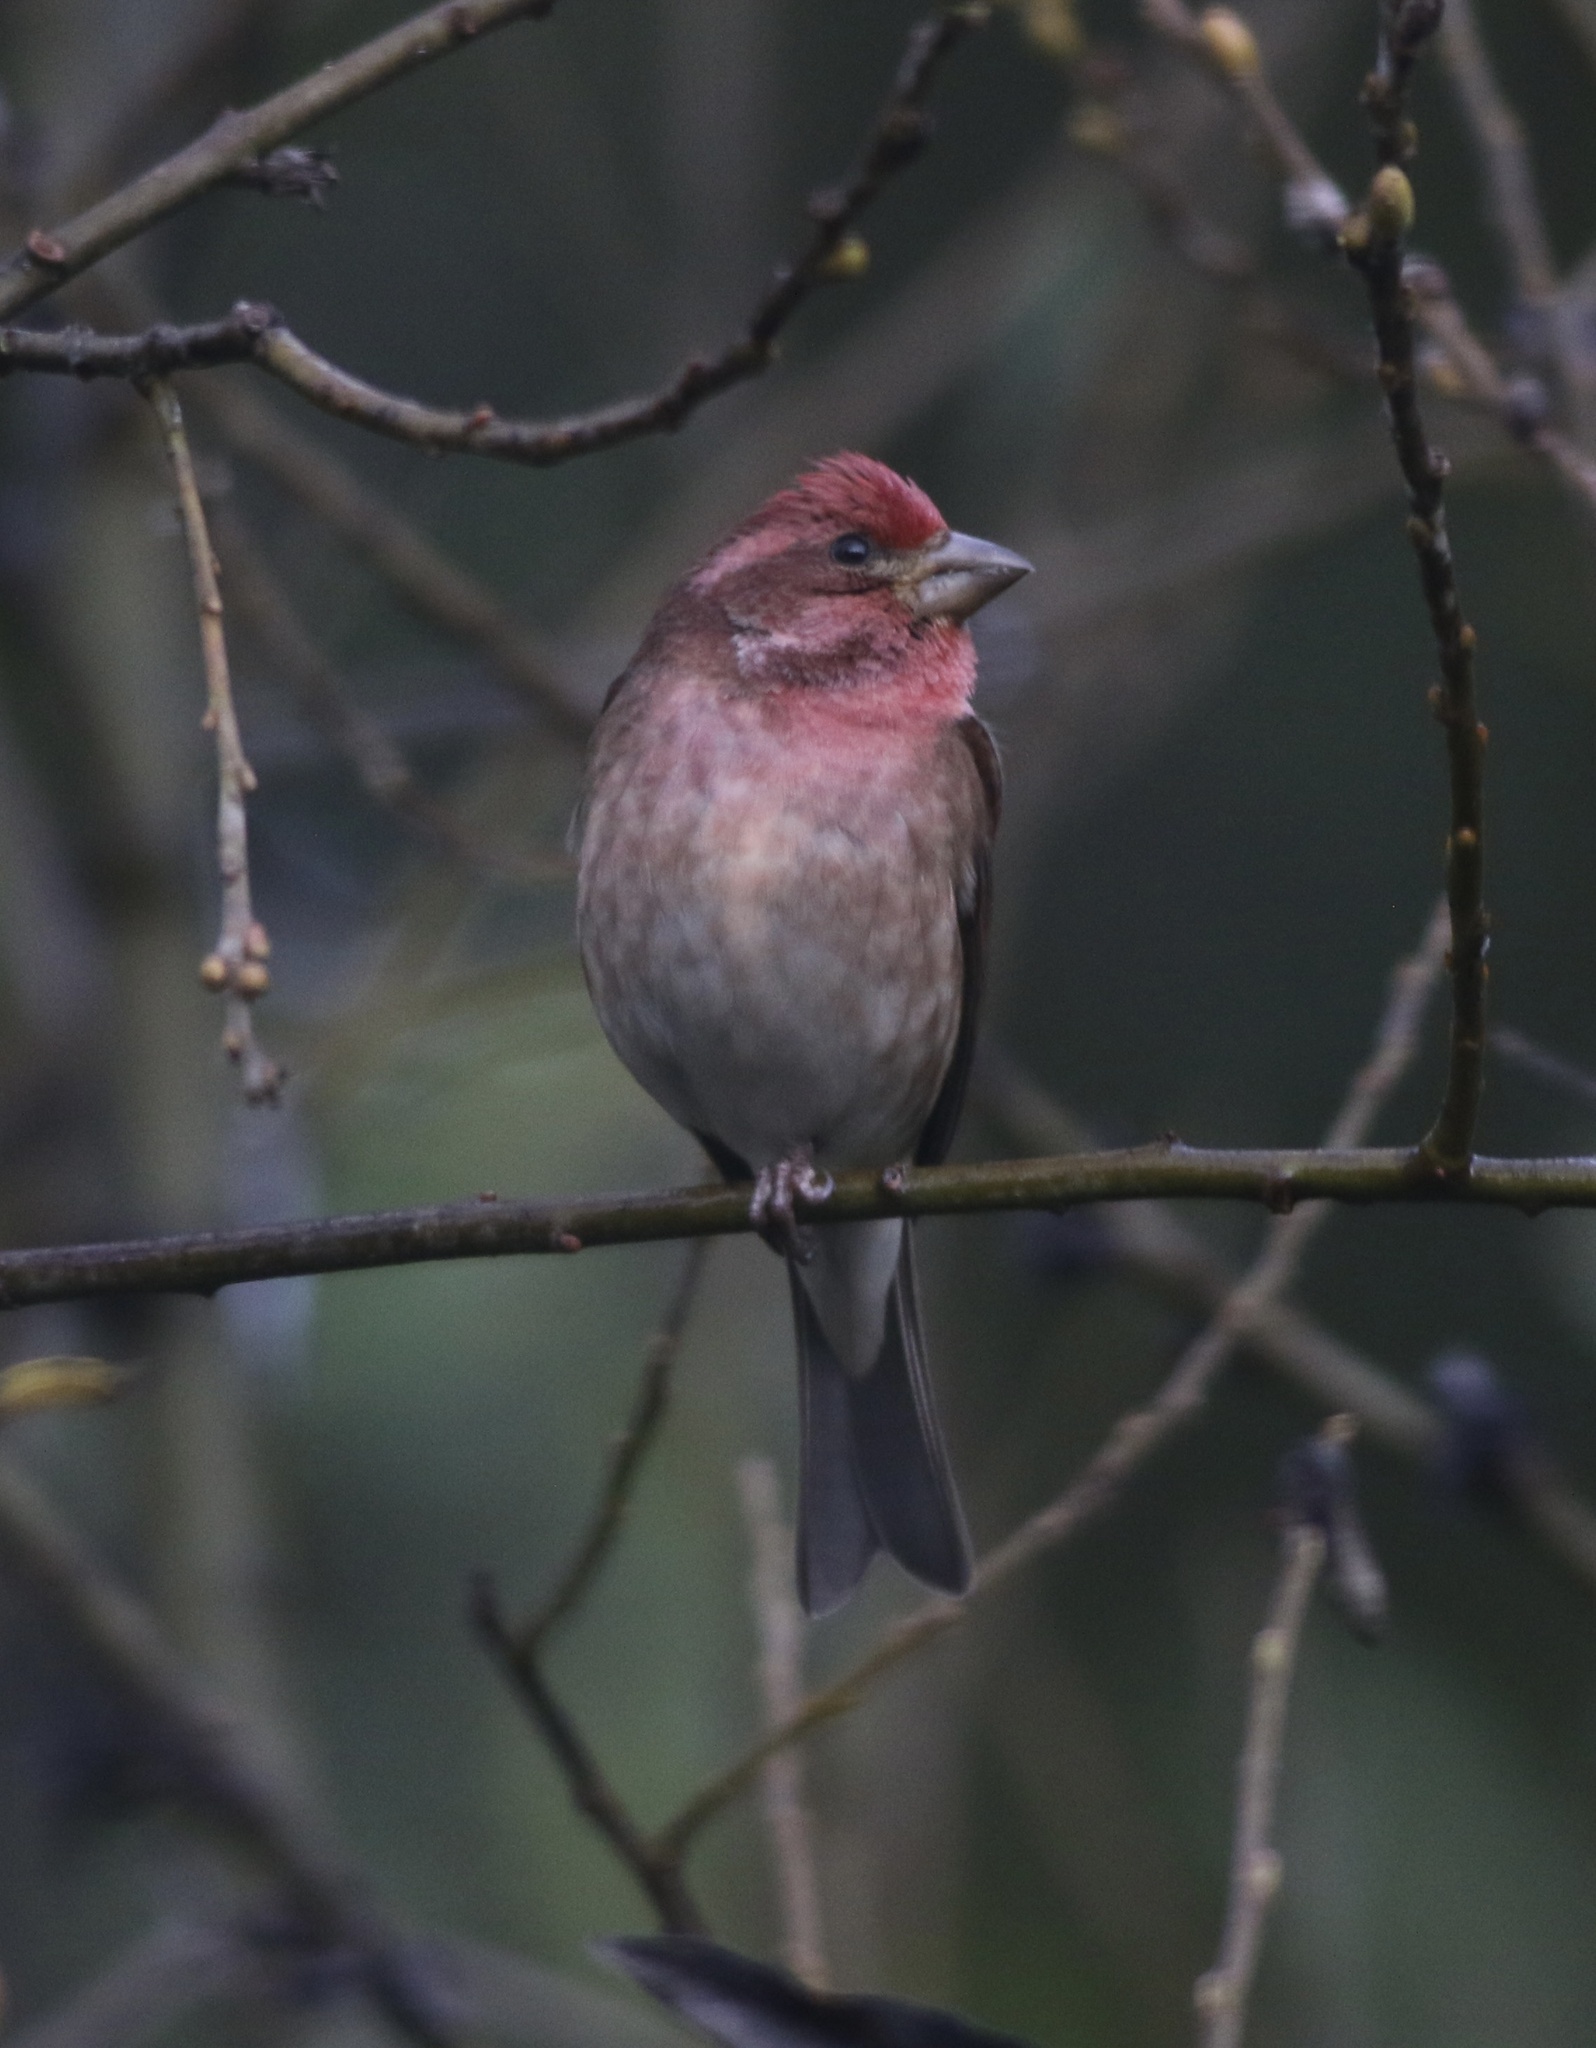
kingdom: Animalia
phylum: Chordata
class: Aves
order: Passeriformes
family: Fringillidae
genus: Haemorhous
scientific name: Haemorhous purpureus
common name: Purple finch
